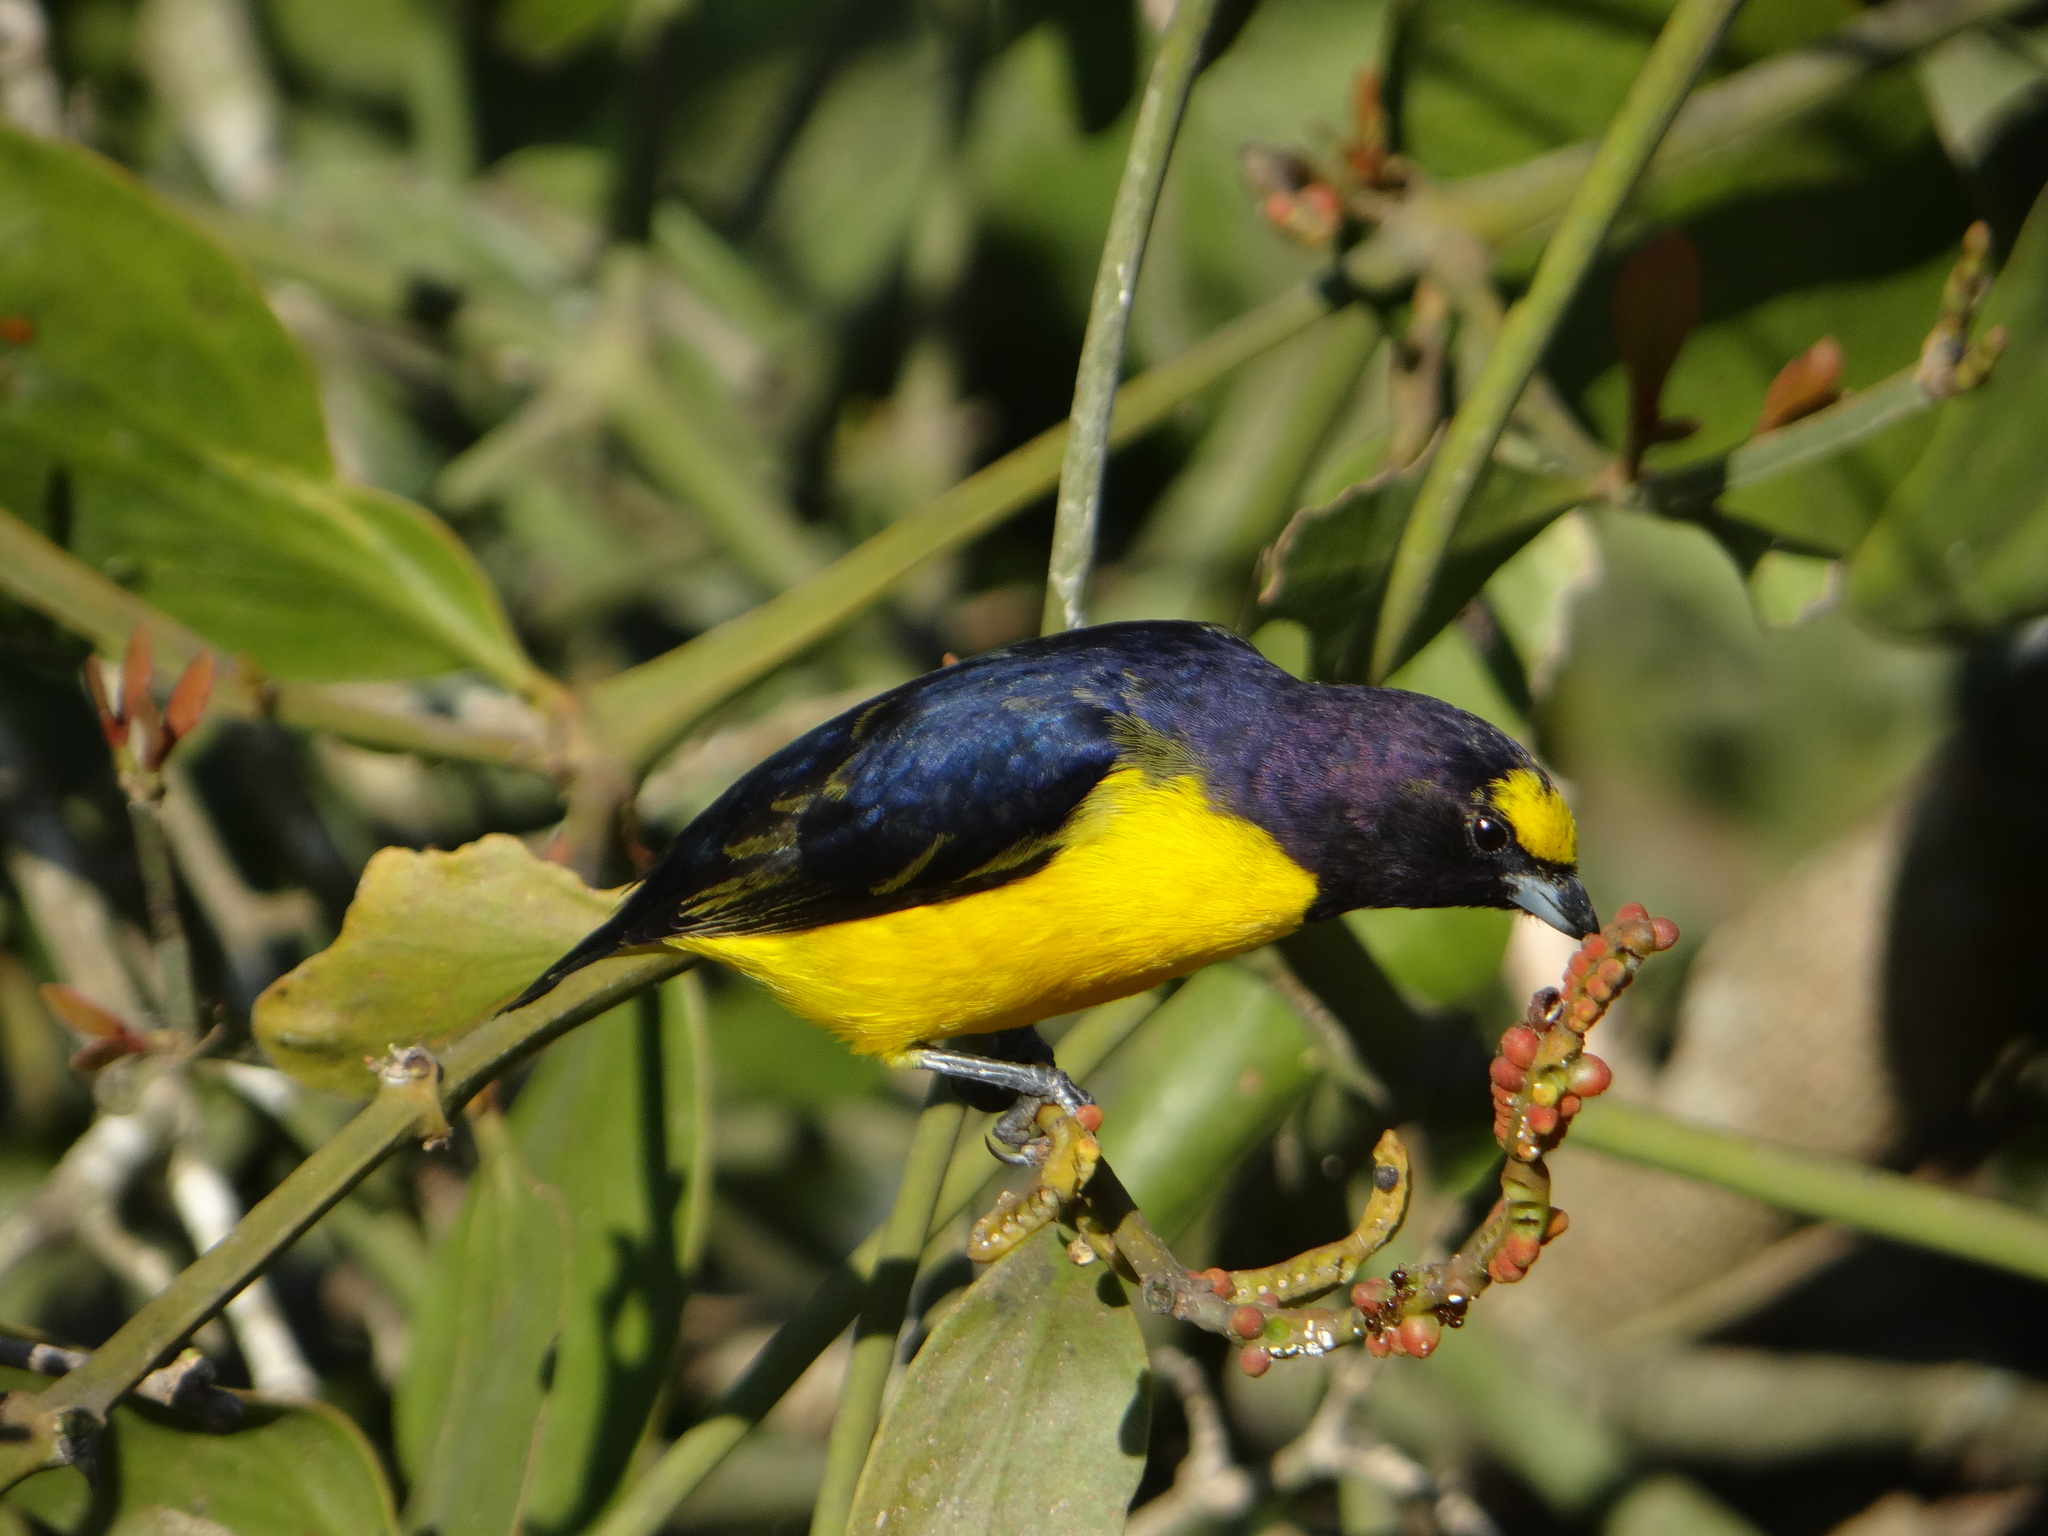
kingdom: Animalia
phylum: Chordata
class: Aves
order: Passeriformes
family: Fringillidae
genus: Euphonia
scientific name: Euphonia chlorotica
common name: Purple-throated euphonia
